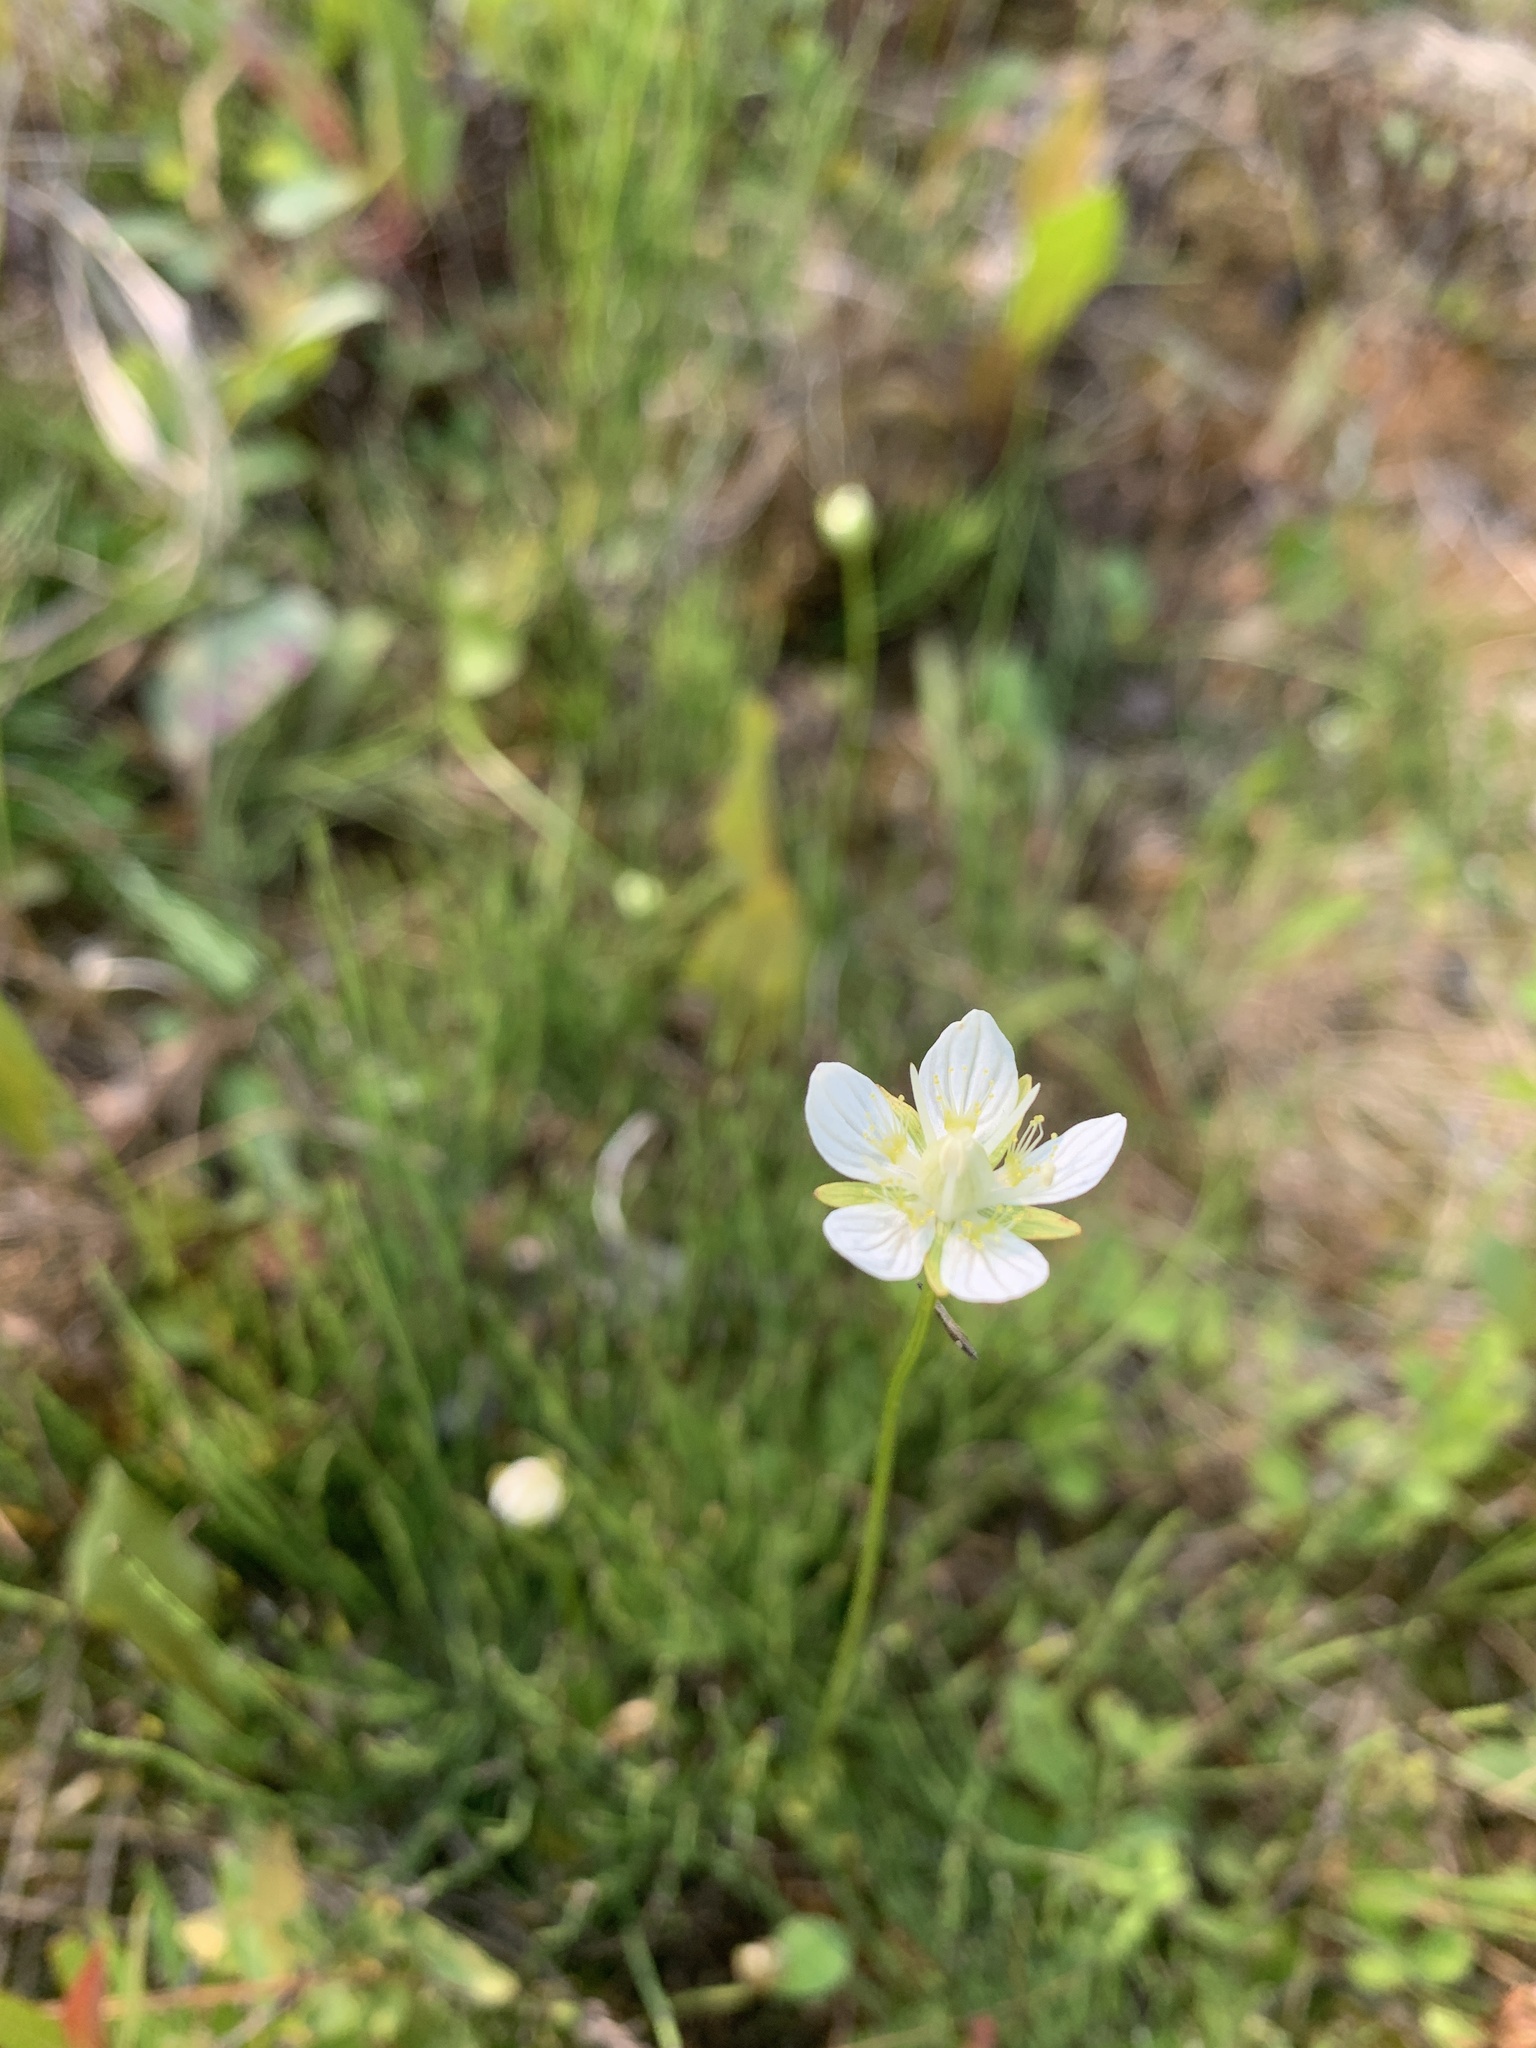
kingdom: Plantae
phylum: Tracheophyta
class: Magnoliopsida
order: Celastrales
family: Parnassiaceae
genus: Parnassia
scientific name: Parnassia palustris
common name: Grass-of-parnassus
